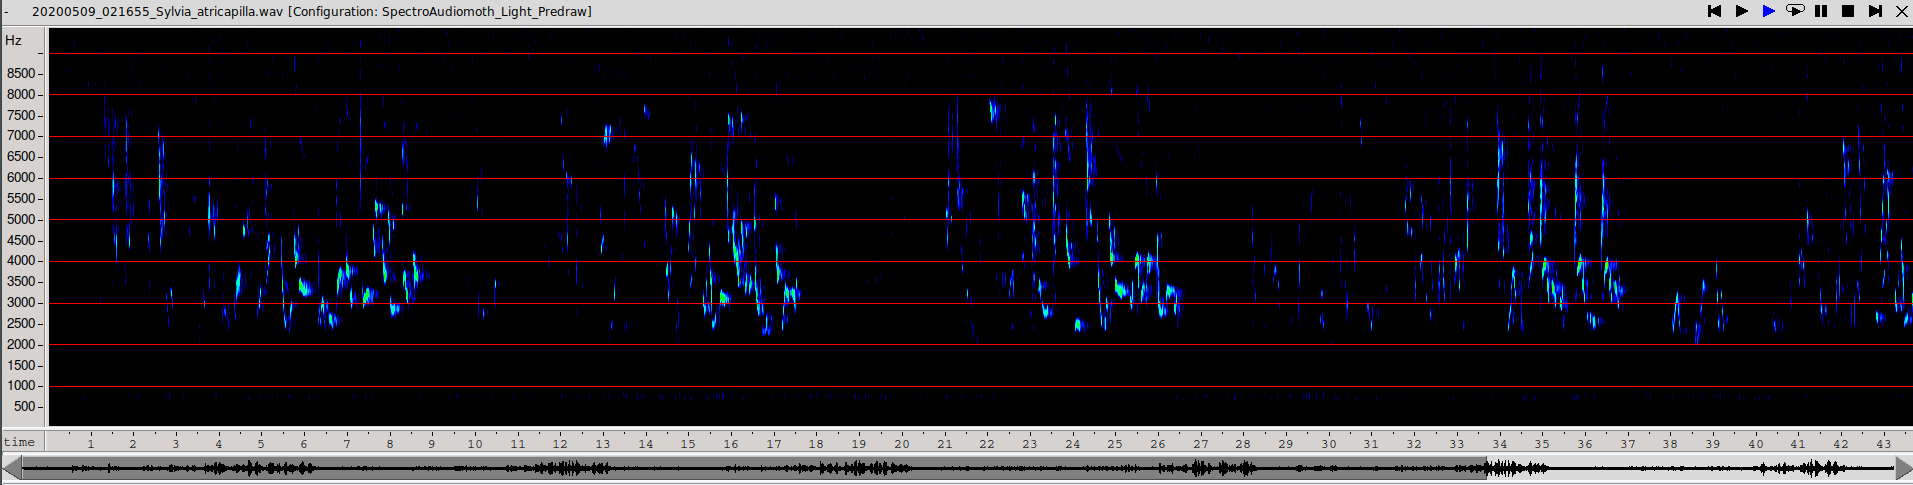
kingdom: Animalia
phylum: Chordata
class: Aves
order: Passeriformes
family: Sylviidae
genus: Sylvia
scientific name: Sylvia atricapilla
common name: Eurasian blackcap
